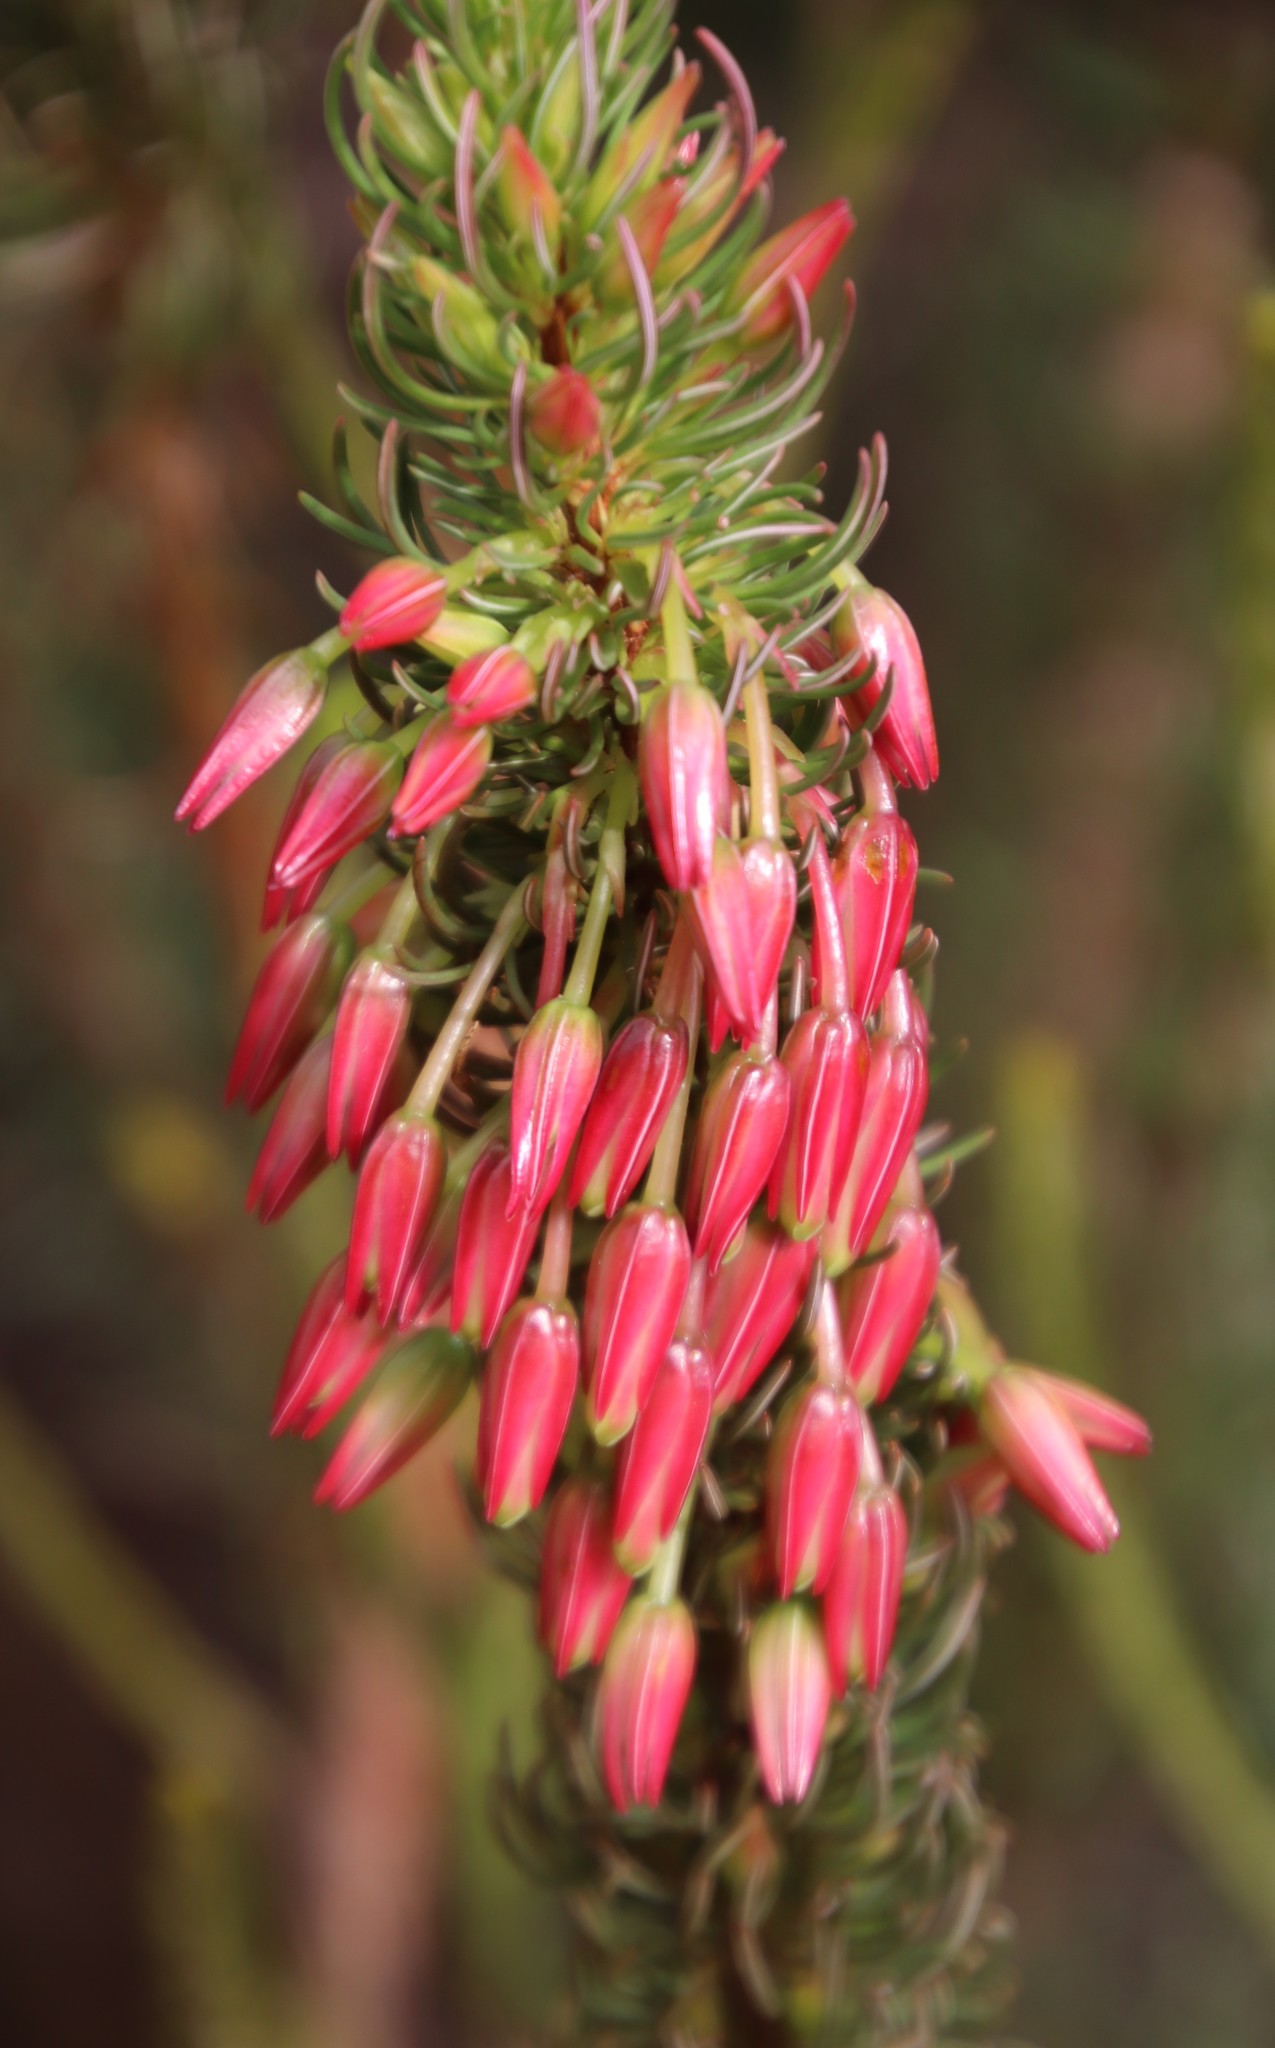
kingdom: Plantae
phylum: Tracheophyta
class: Magnoliopsida
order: Ericales
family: Ericaceae
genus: Erica
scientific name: Erica plukenetii
